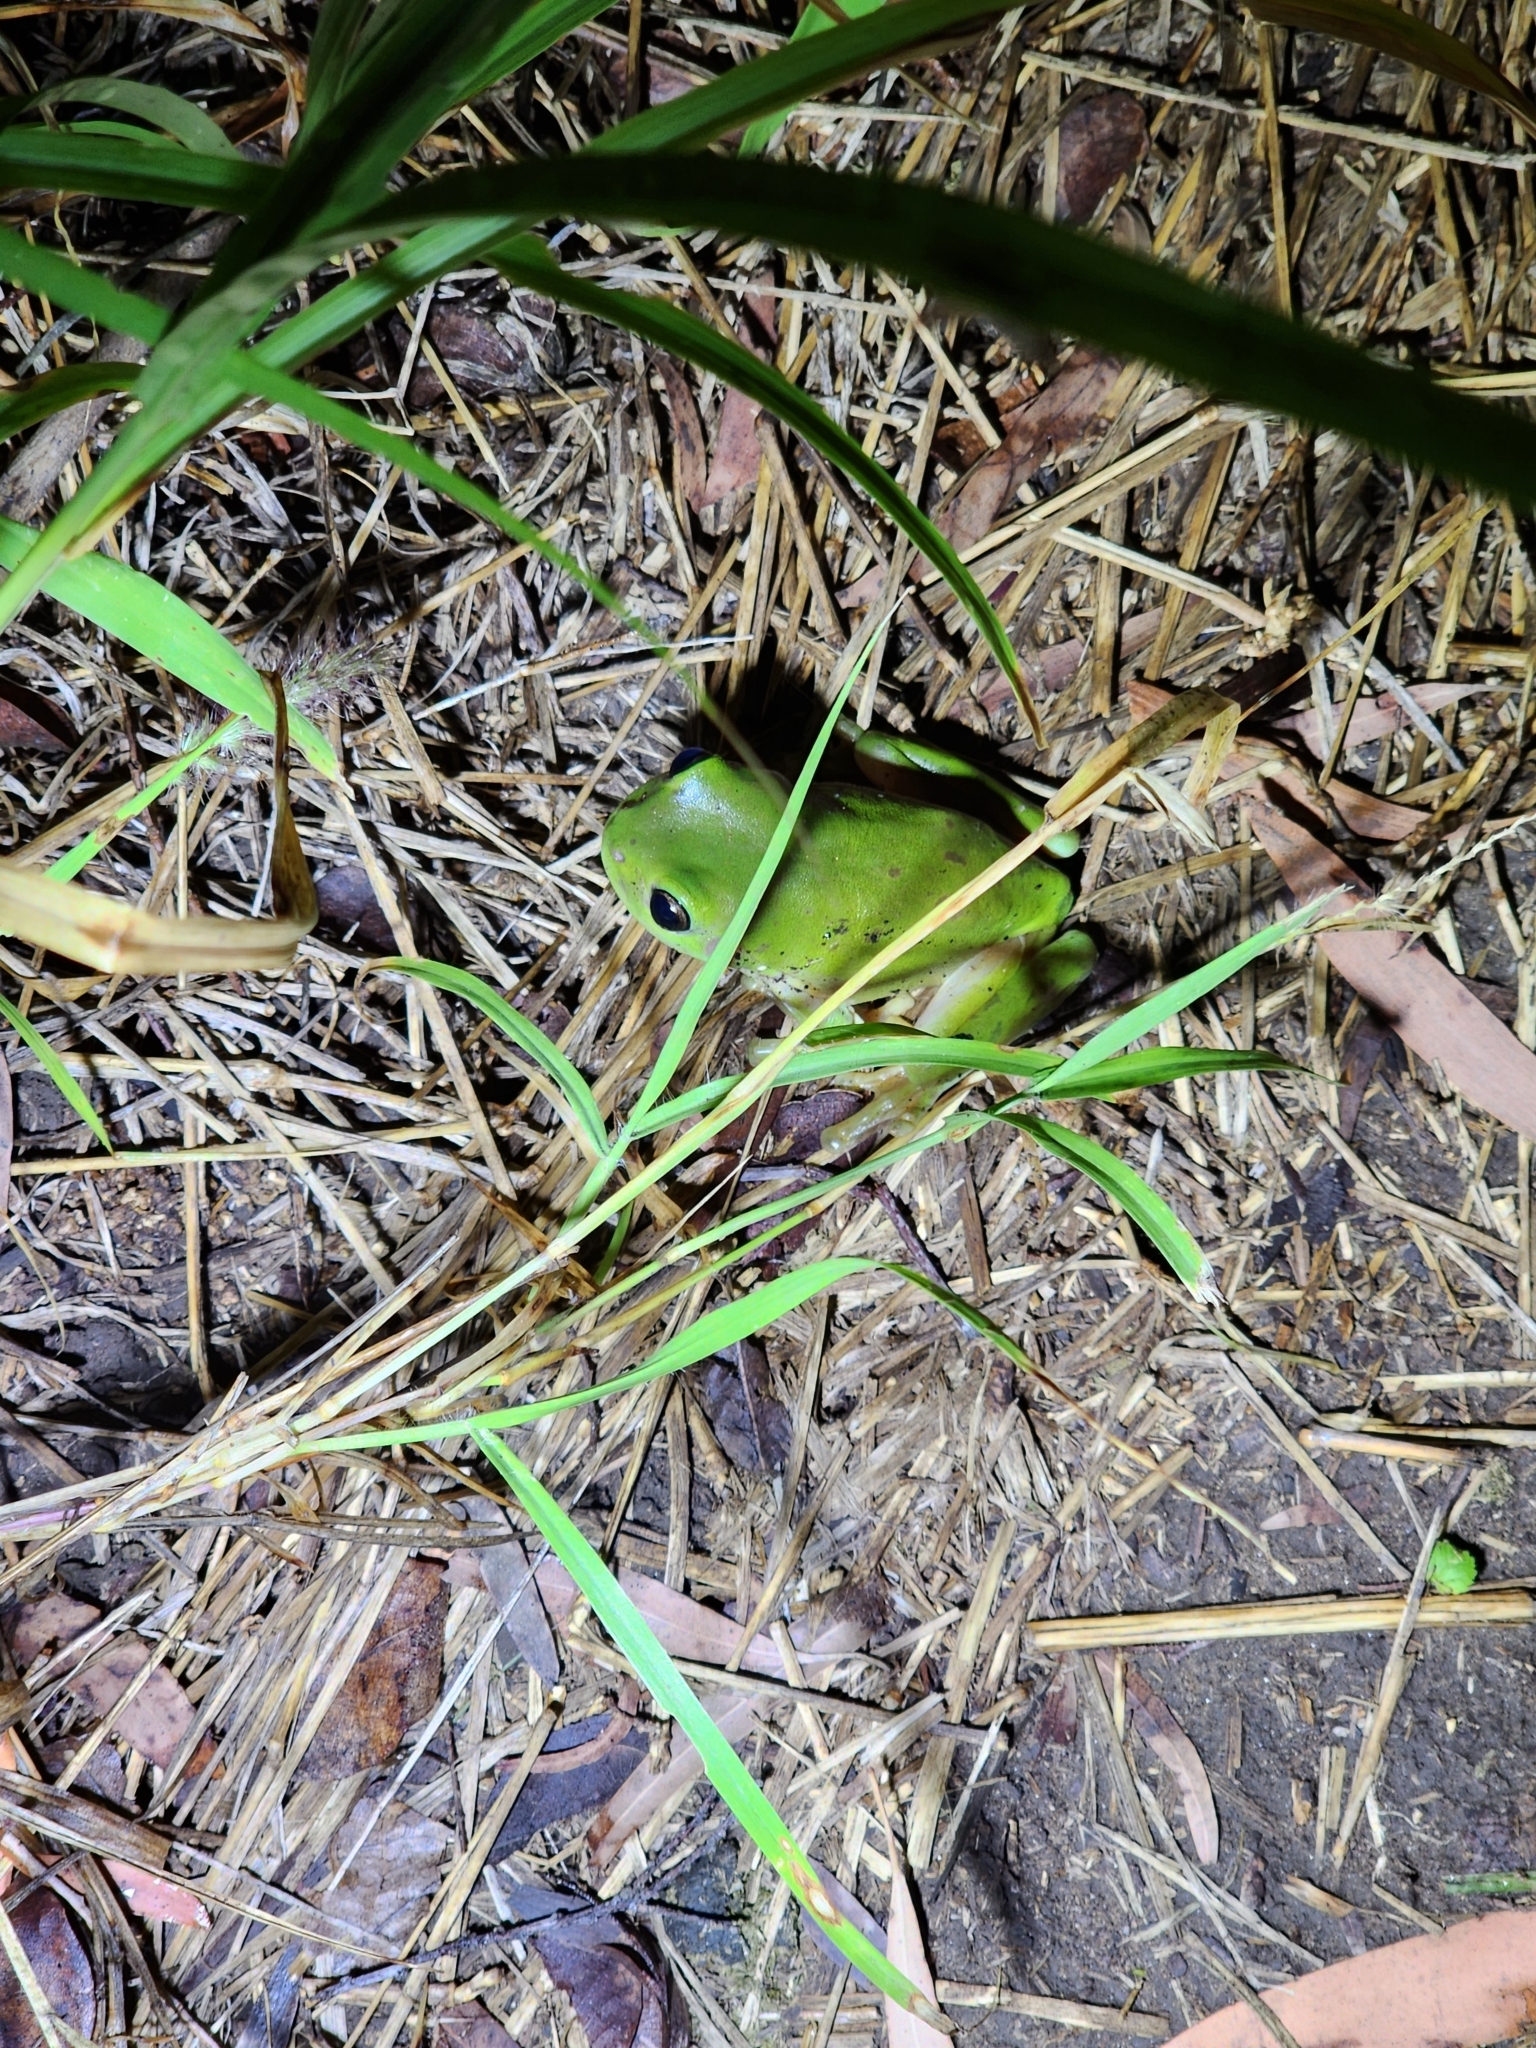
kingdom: Animalia
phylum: Chordata
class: Amphibia
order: Anura
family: Pelodryadidae
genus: Ranoidea
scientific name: Ranoidea caerulea
